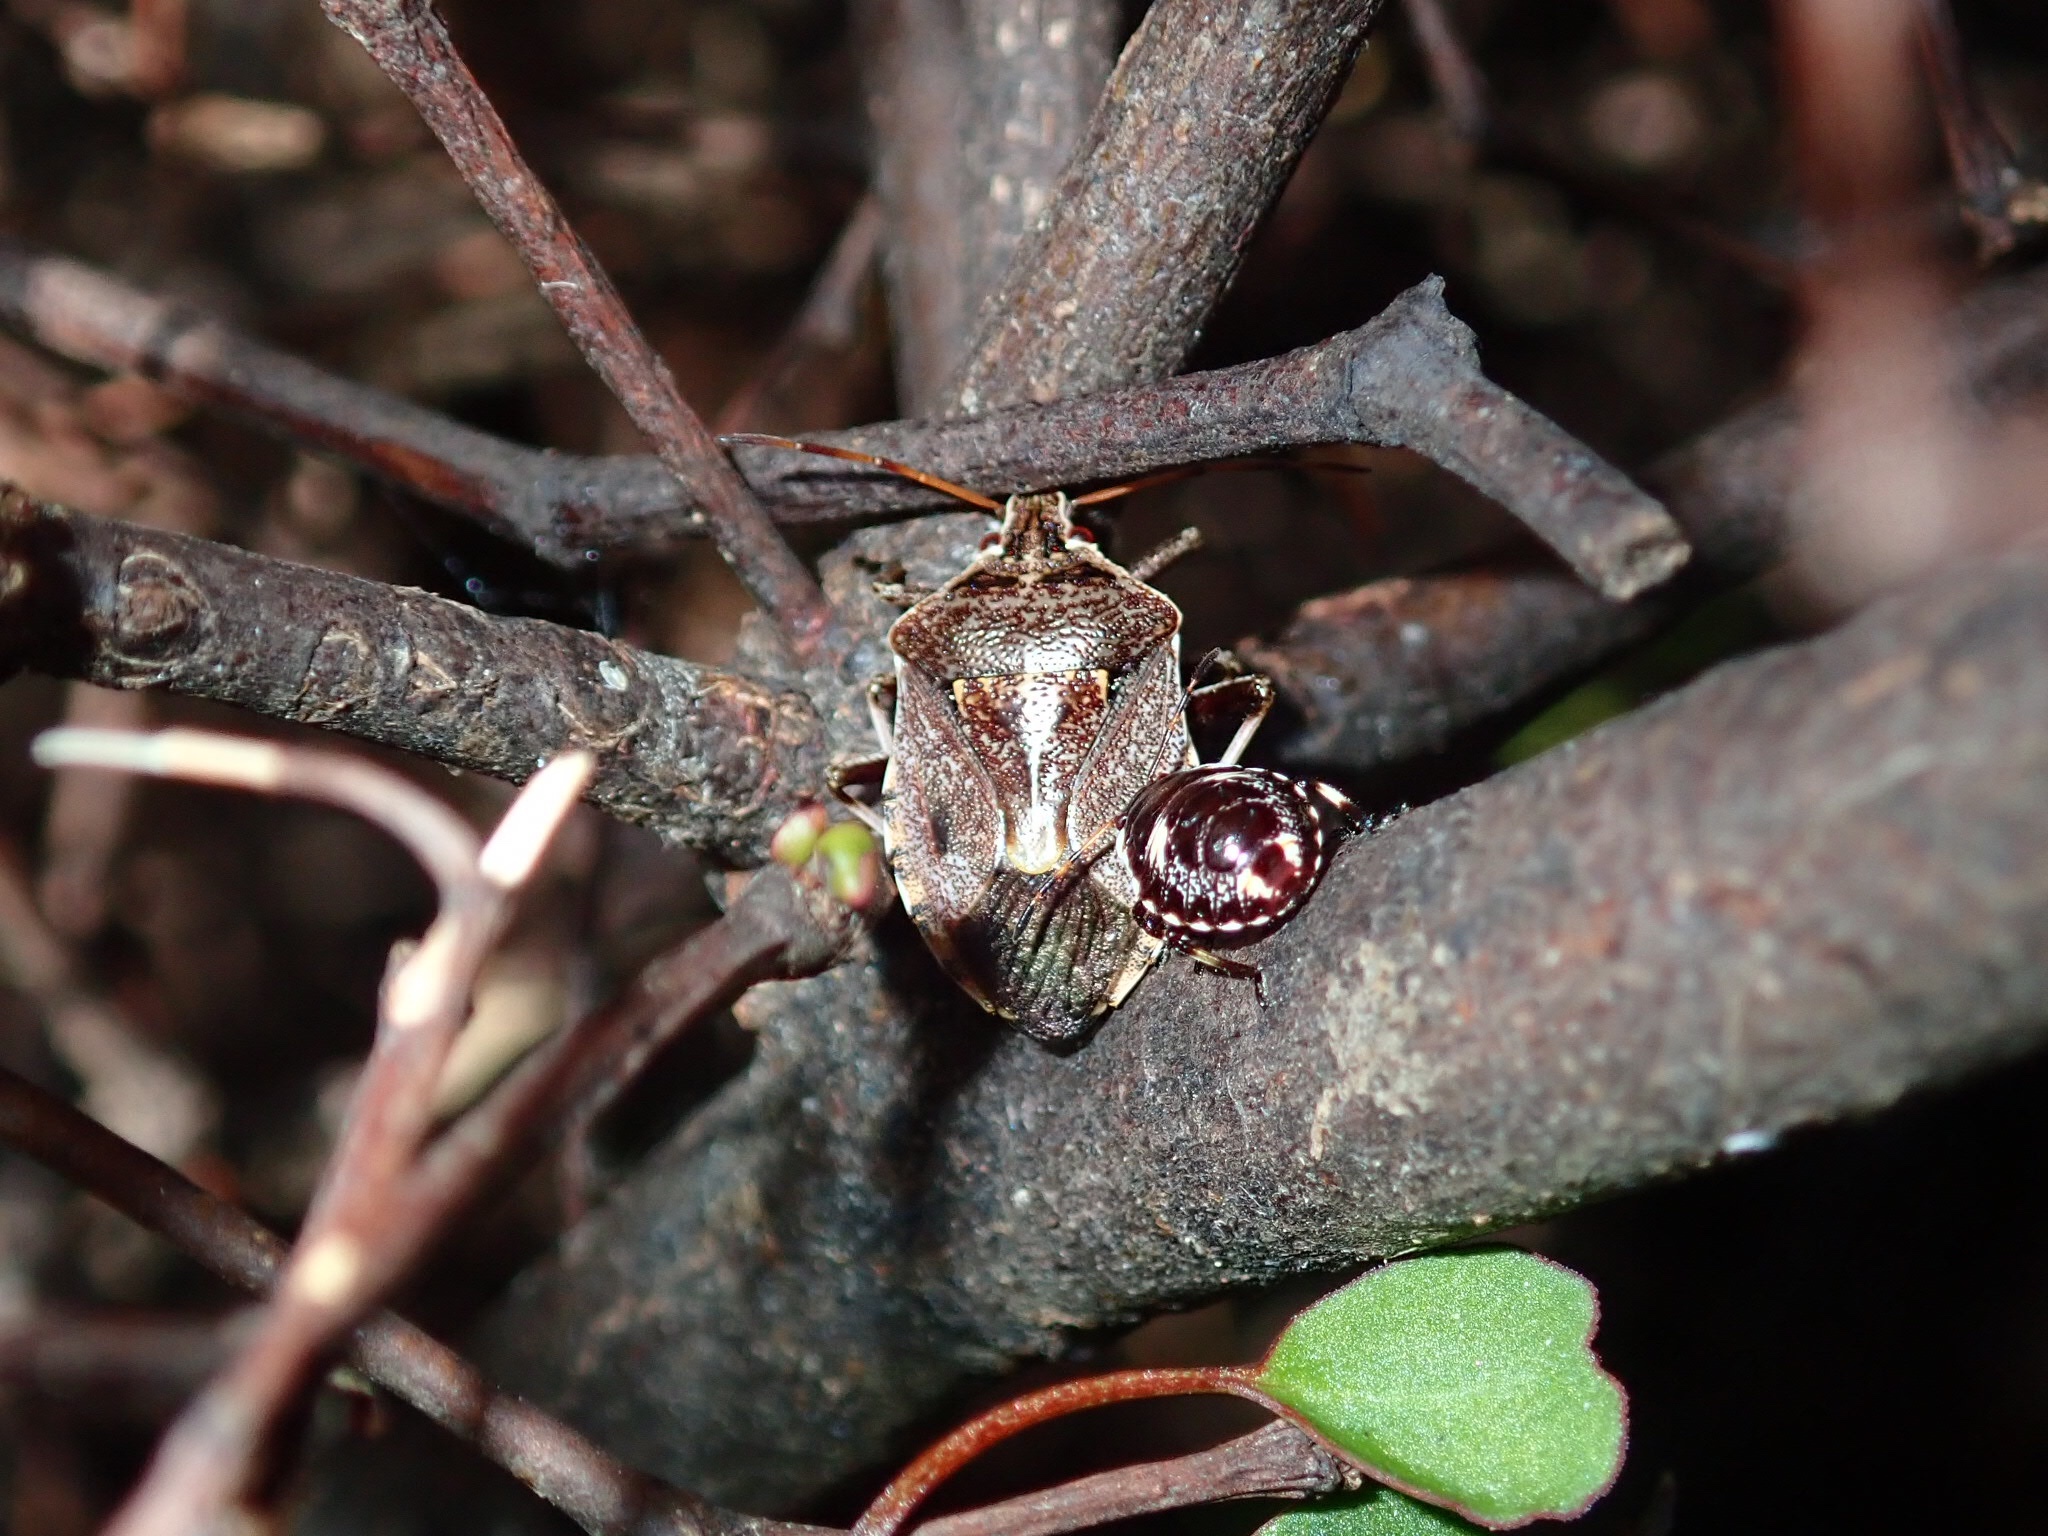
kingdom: Animalia
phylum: Arthropoda
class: Insecta
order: Hemiptera
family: Pentatomidae
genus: Cermatulus
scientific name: Cermatulus nasalis
